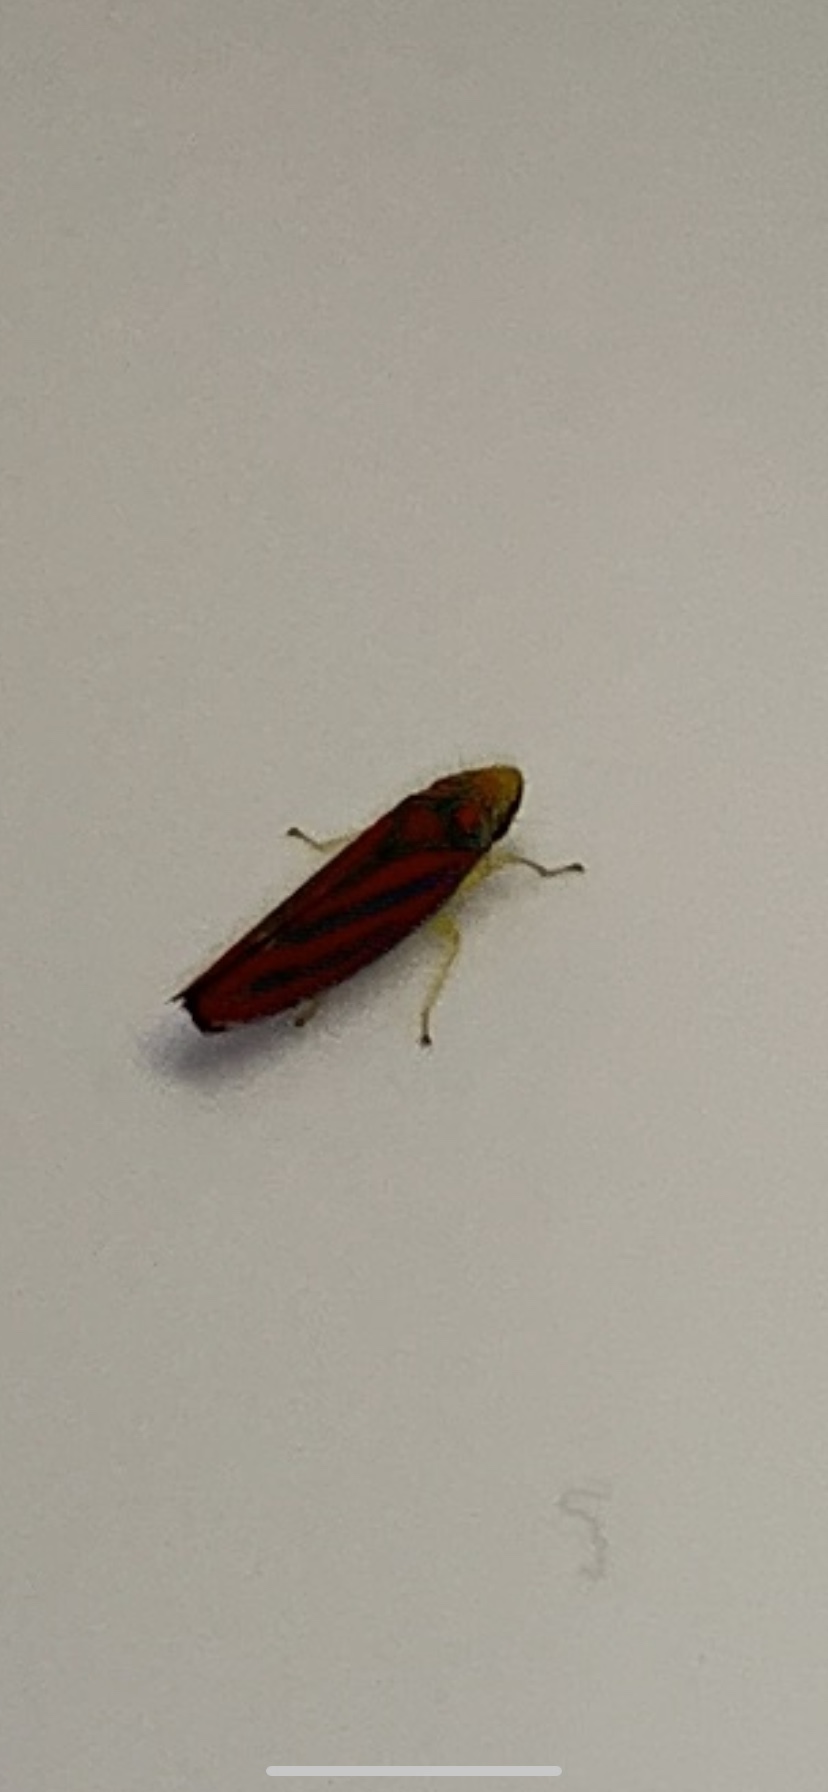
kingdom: Animalia
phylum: Arthropoda
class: Insecta
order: Hemiptera
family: Cicadellidae
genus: Graphocephala
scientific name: Graphocephala coccinea
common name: Candy-striped leafhopper
